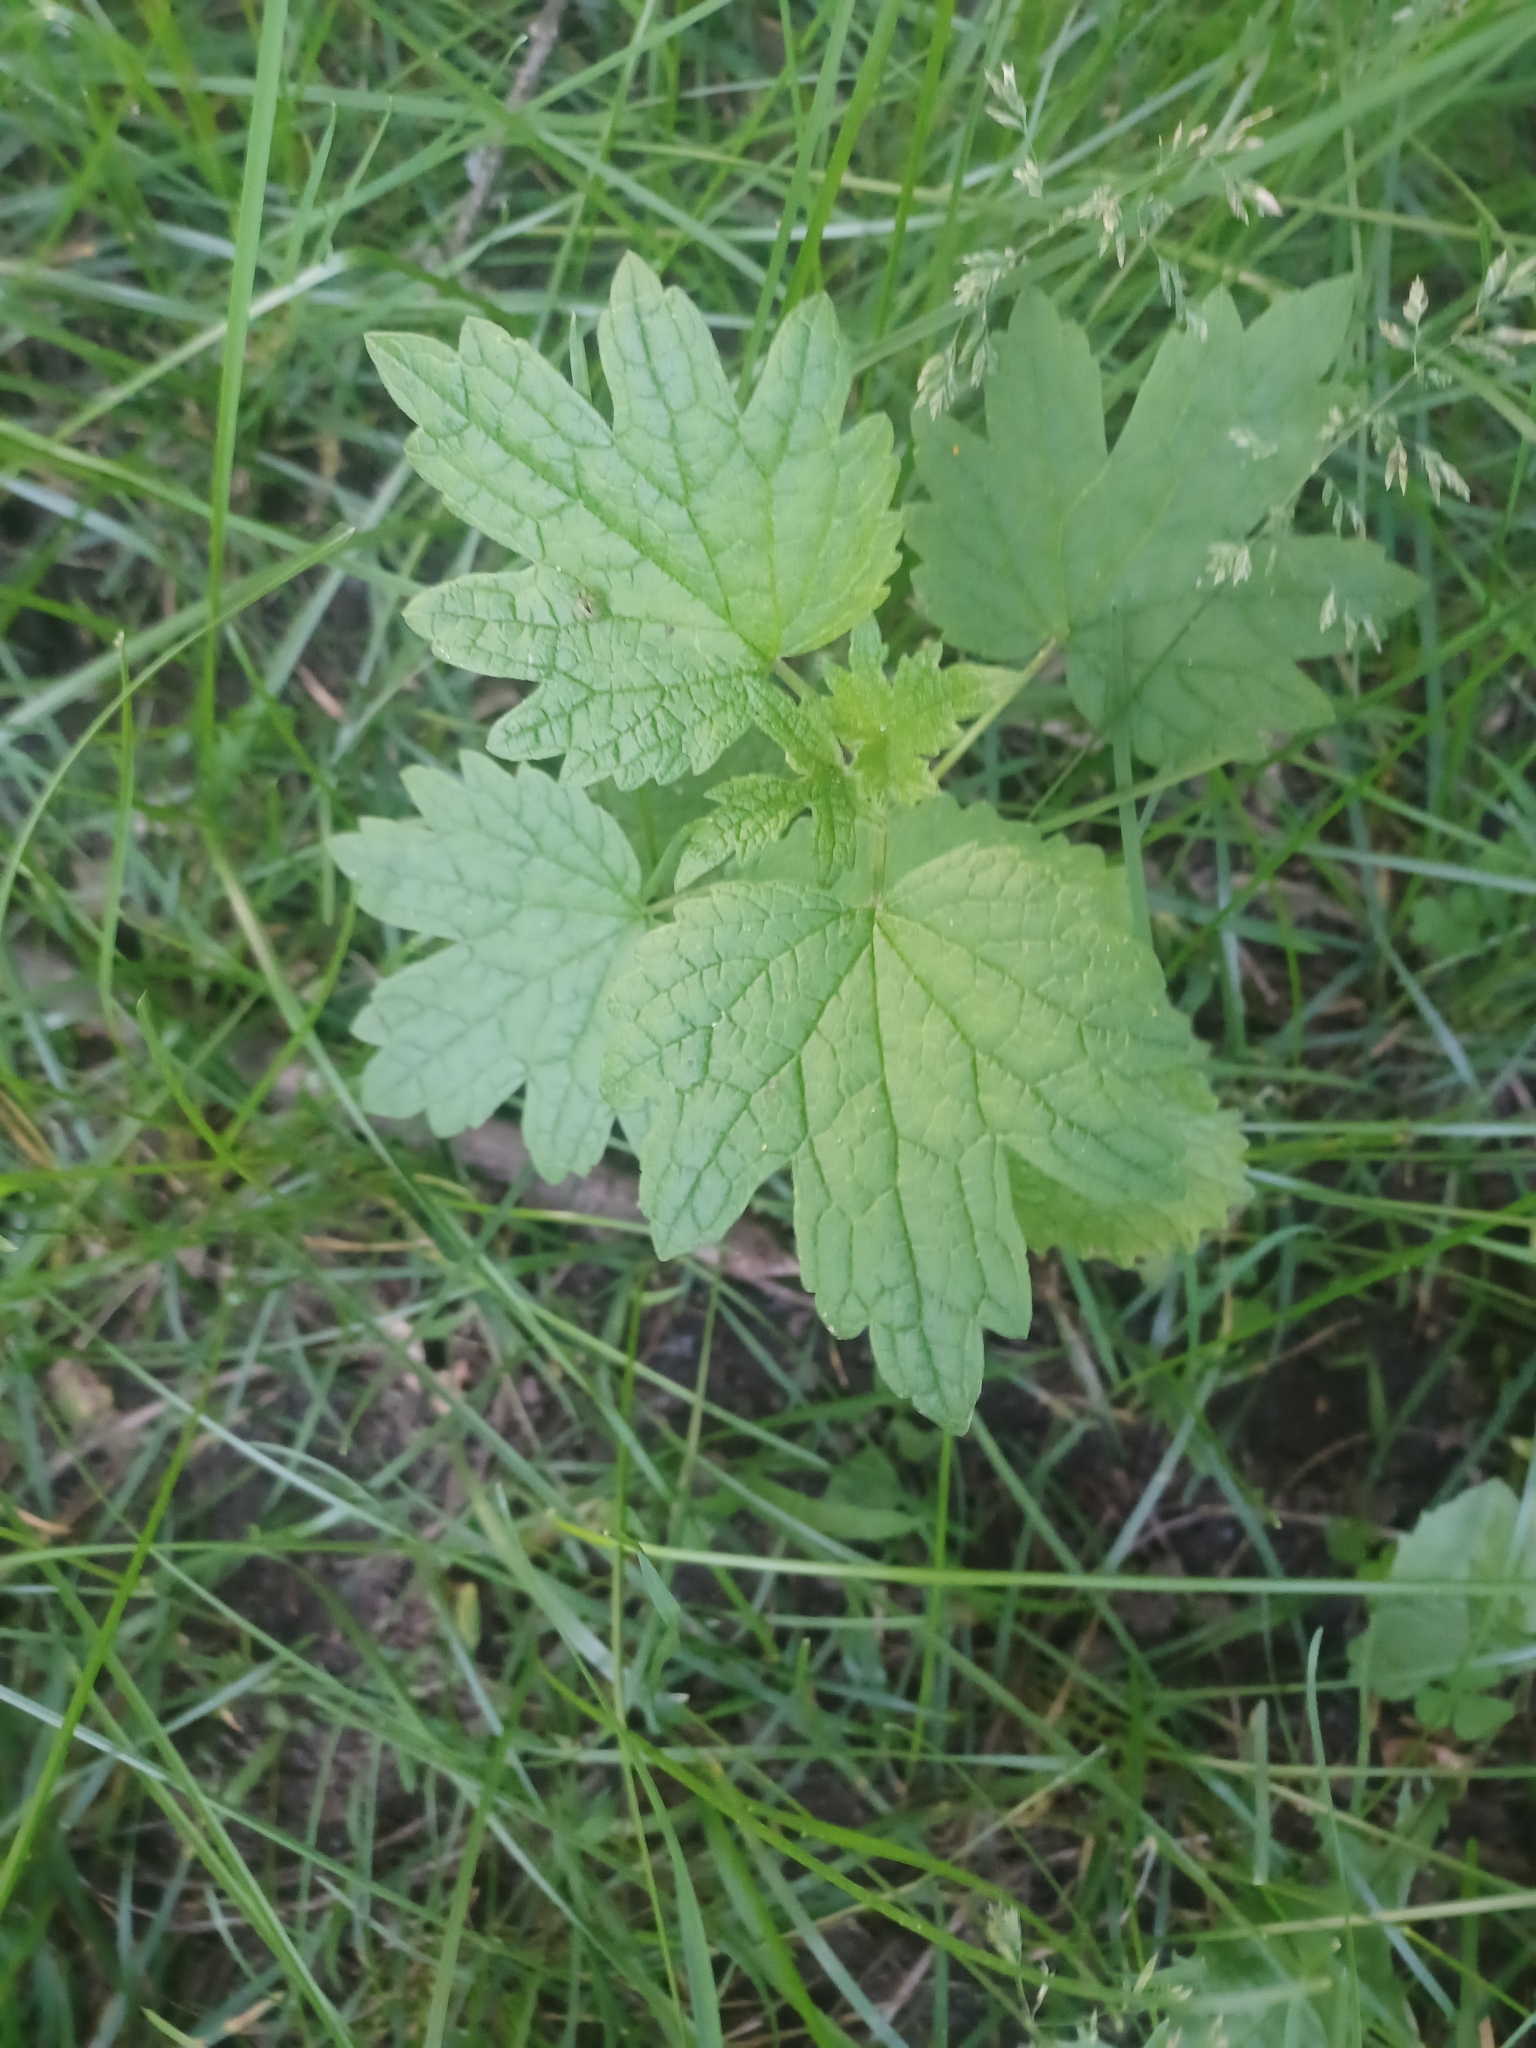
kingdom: Plantae
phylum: Tracheophyta
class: Magnoliopsida
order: Lamiales
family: Lamiaceae
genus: Leonurus
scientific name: Leonurus cardiaca
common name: Motherwort
